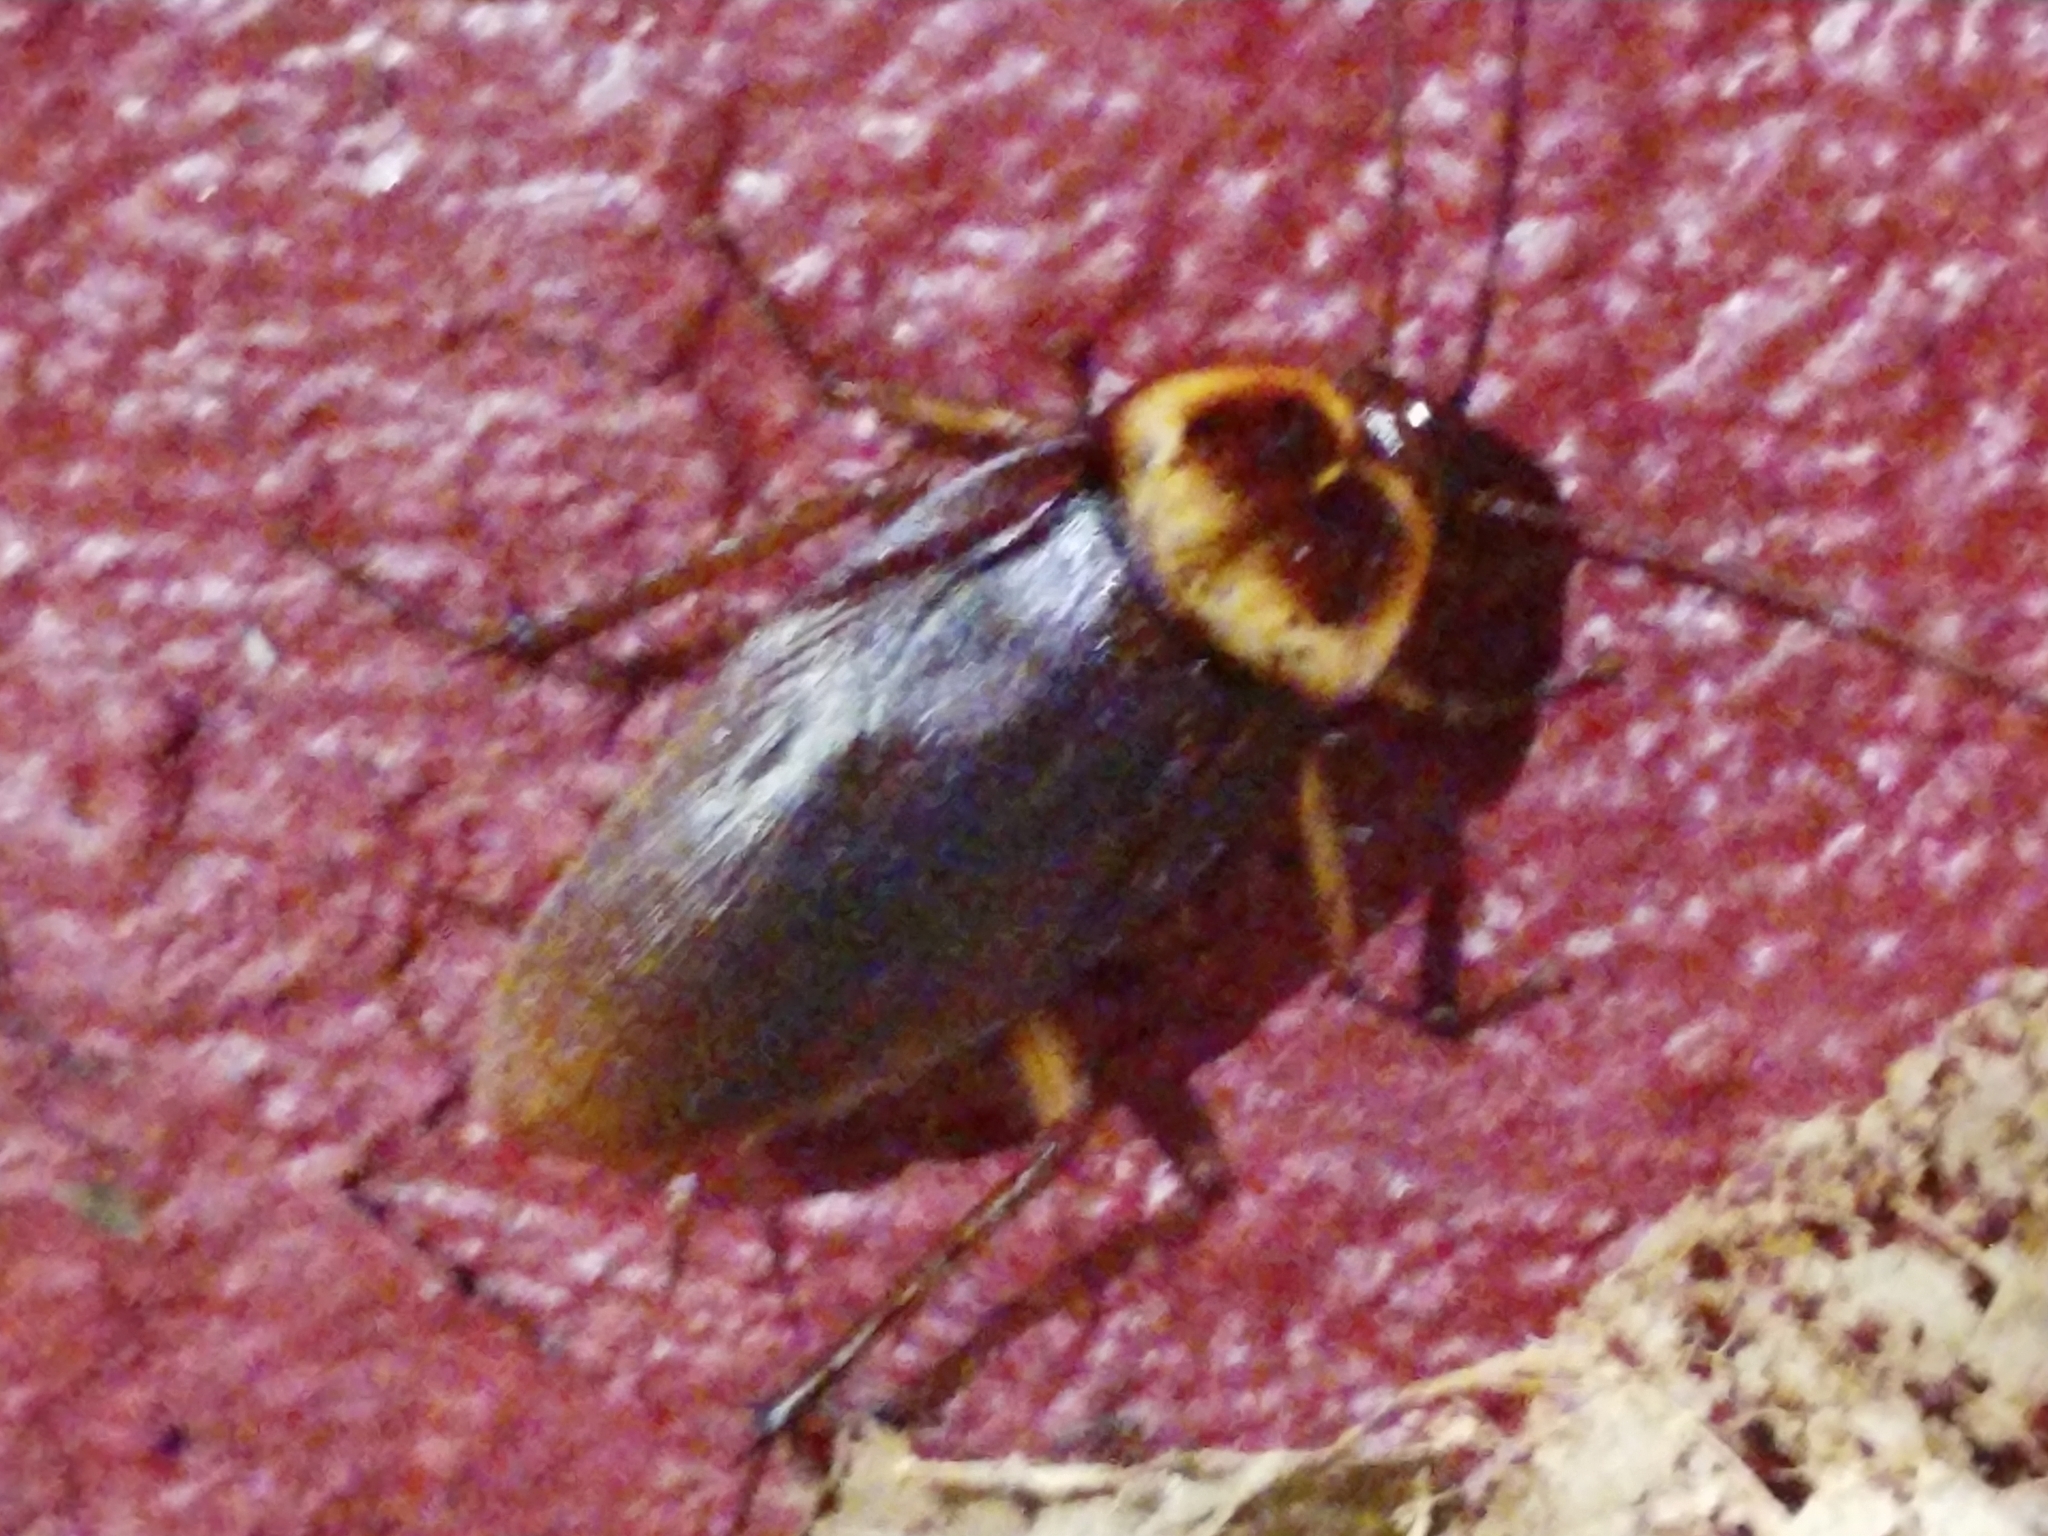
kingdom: Animalia
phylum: Arthropoda
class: Insecta
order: Blattodea
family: Blattidae
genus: Periplaneta
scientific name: Periplaneta americana
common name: American cockroach
